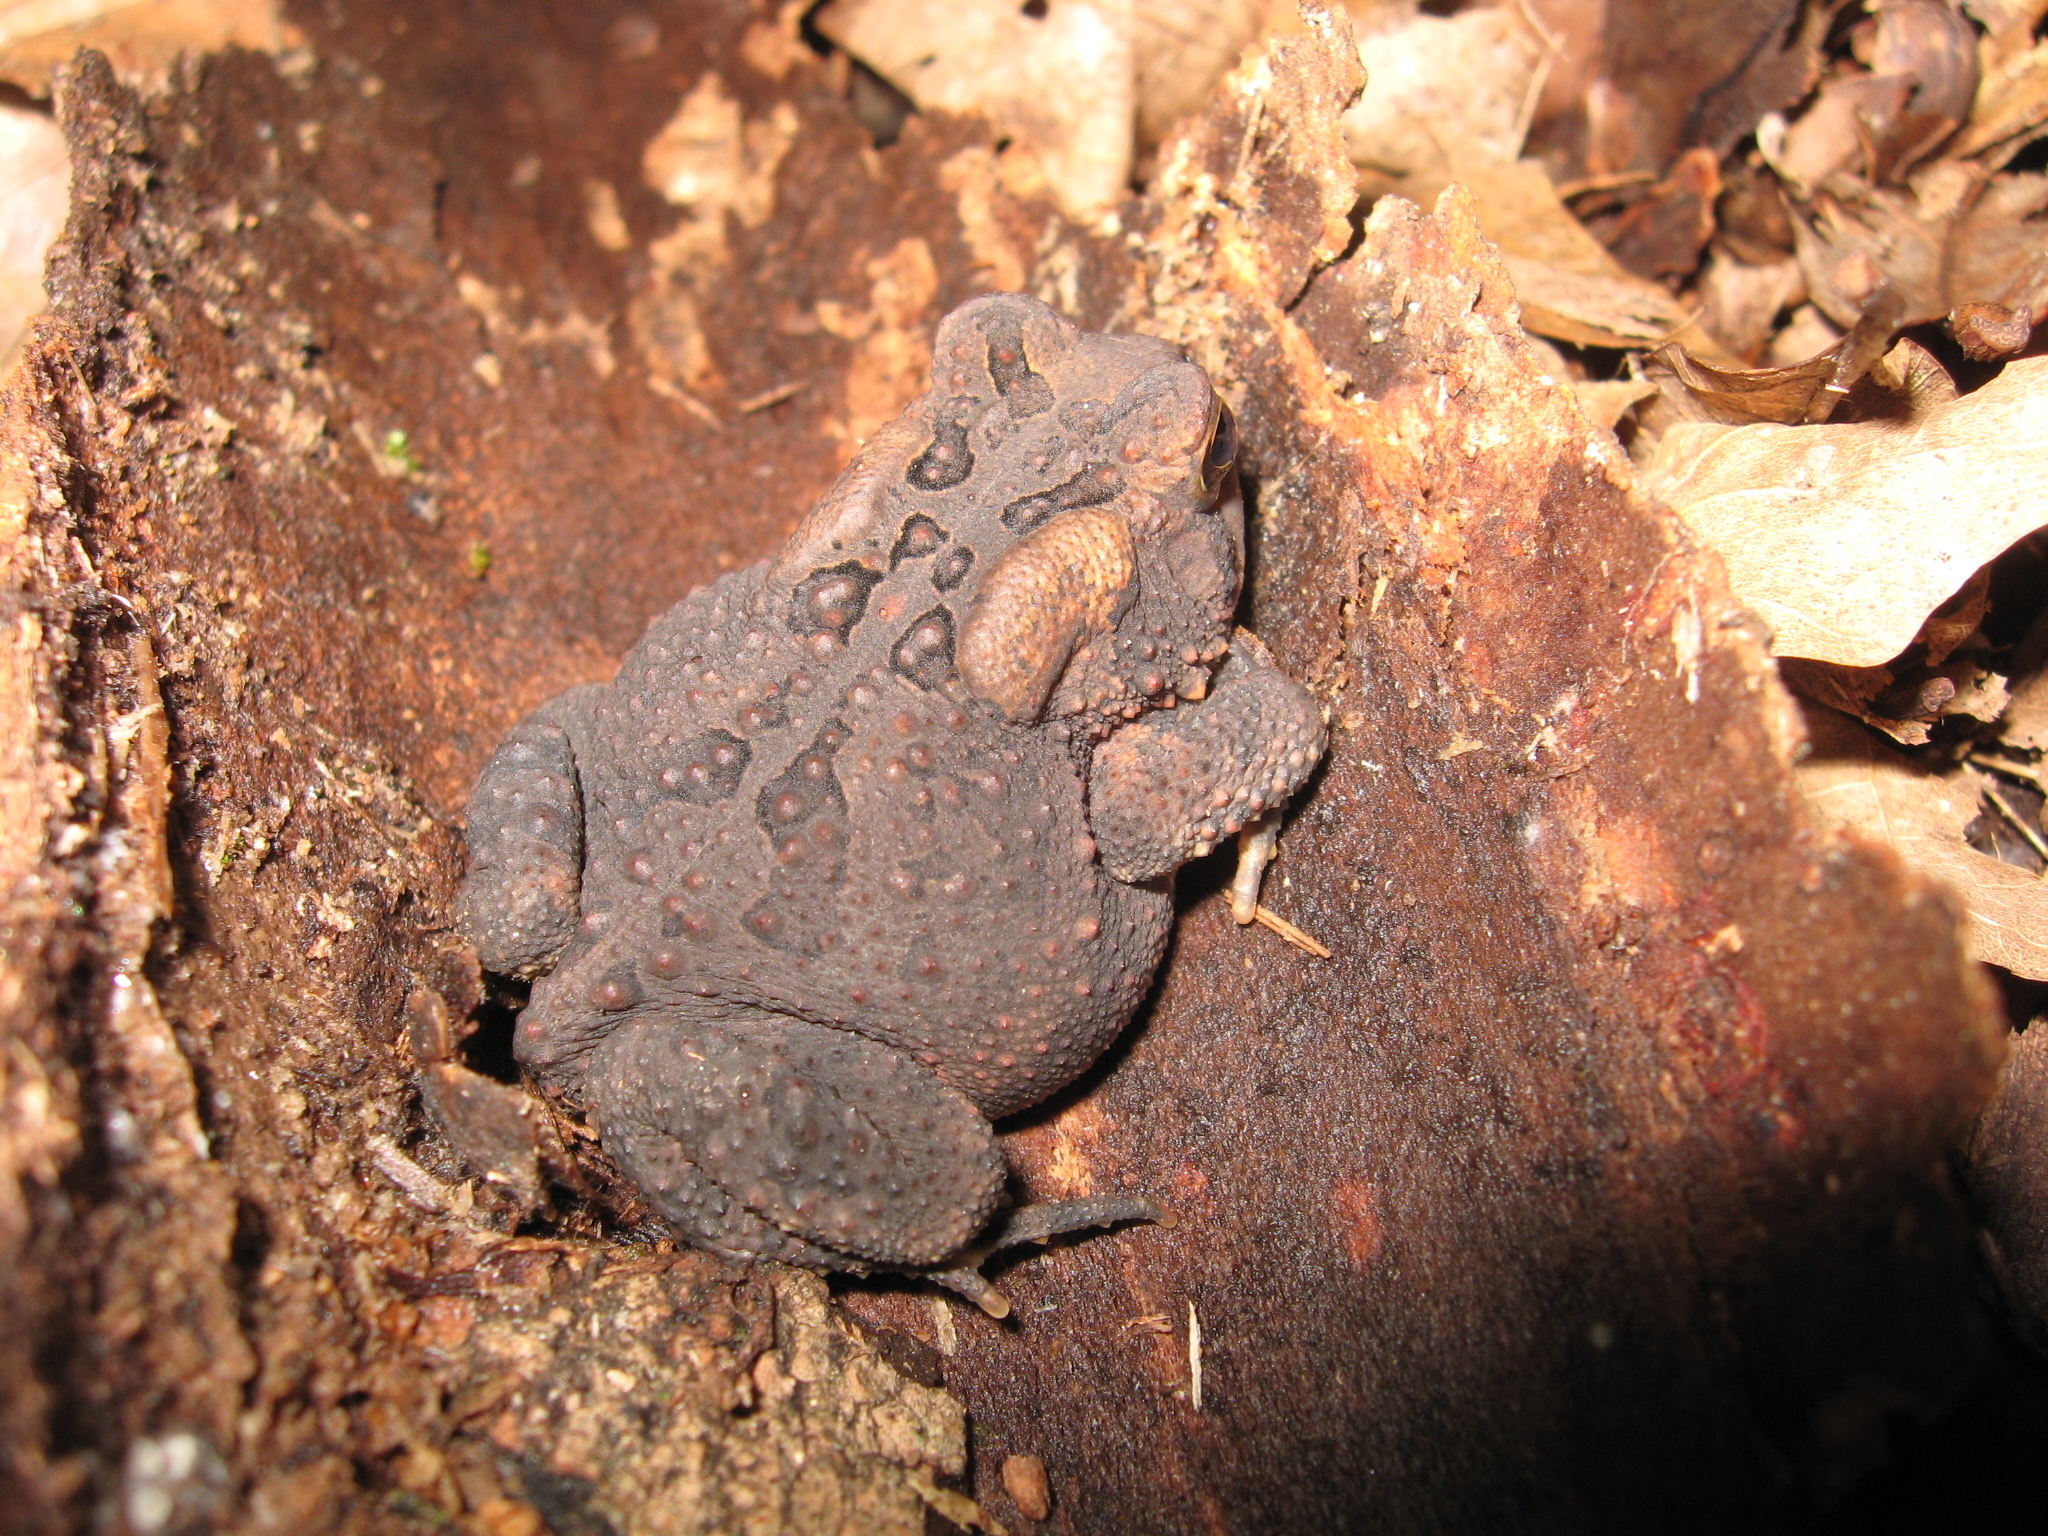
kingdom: Animalia
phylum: Chordata
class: Amphibia
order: Anura
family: Bufonidae
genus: Anaxyrus
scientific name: Anaxyrus americanus
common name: American toad
